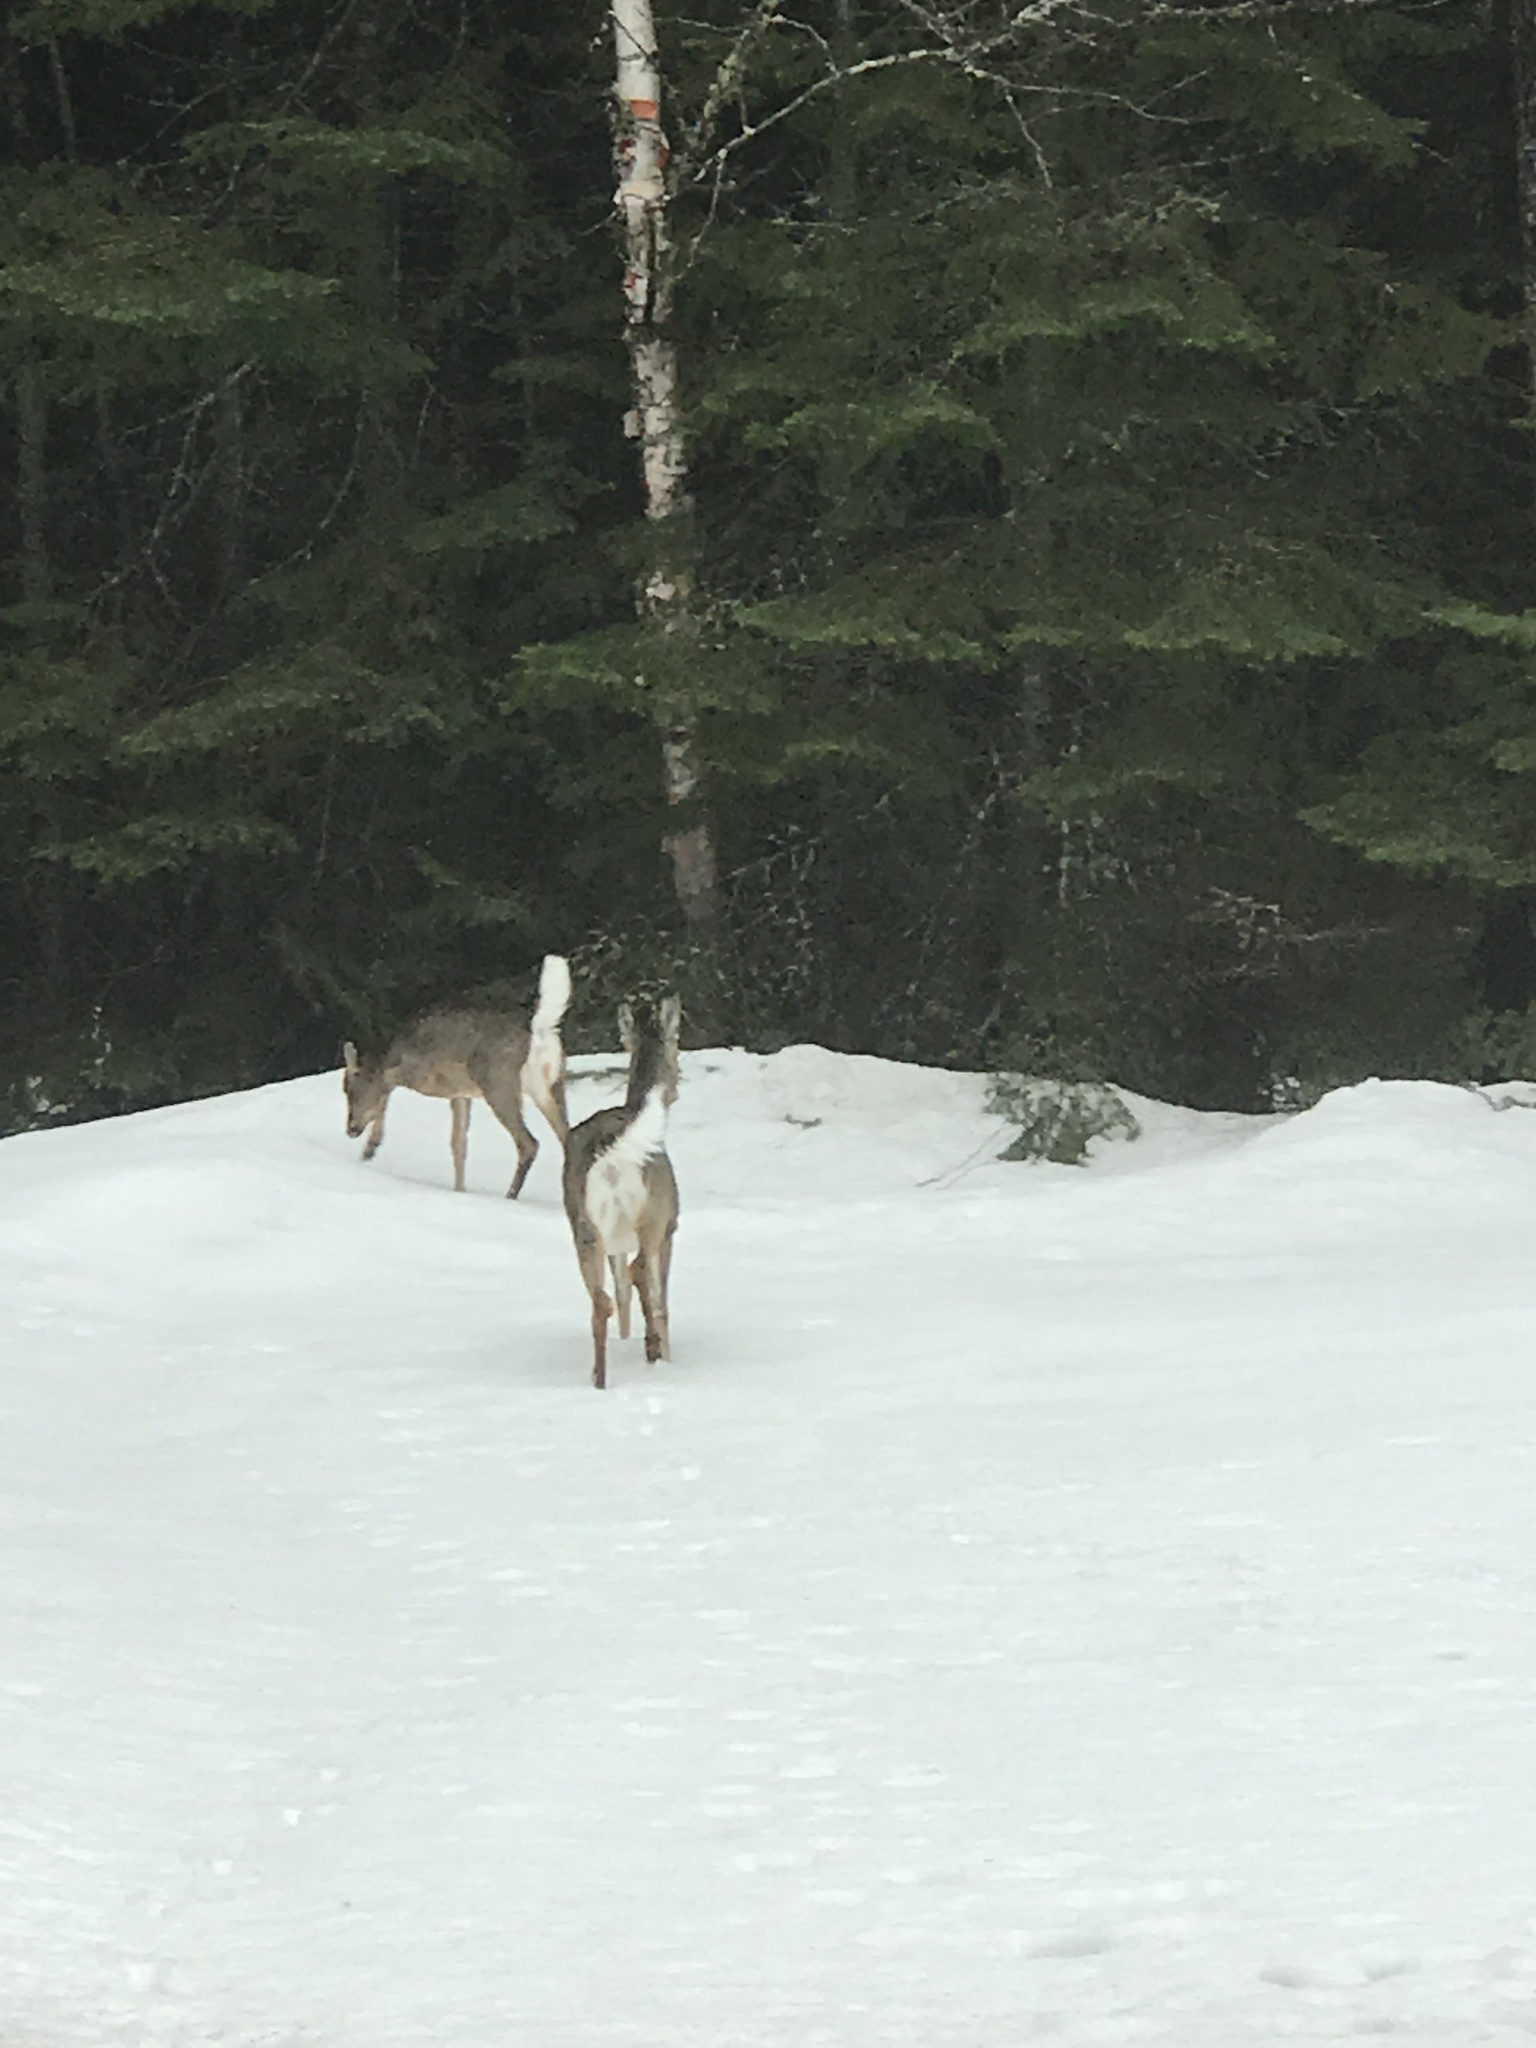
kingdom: Animalia
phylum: Chordata
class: Mammalia
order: Artiodactyla
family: Cervidae
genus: Odocoileus
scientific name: Odocoileus virginianus
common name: White-tailed deer
